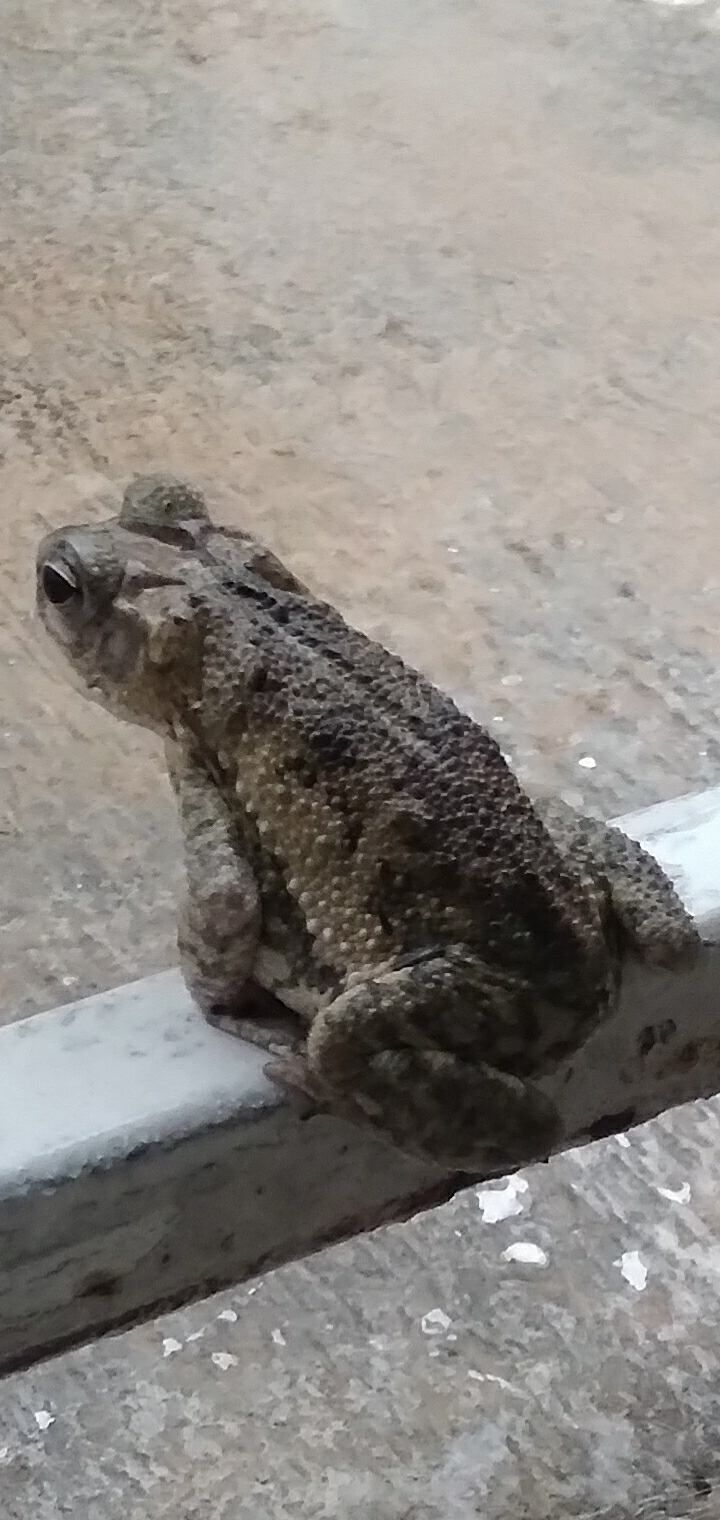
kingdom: Animalia
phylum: Chordata
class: Amphibia
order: Anura
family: Bufonidae
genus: Incilius
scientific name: Incilius valliceps
